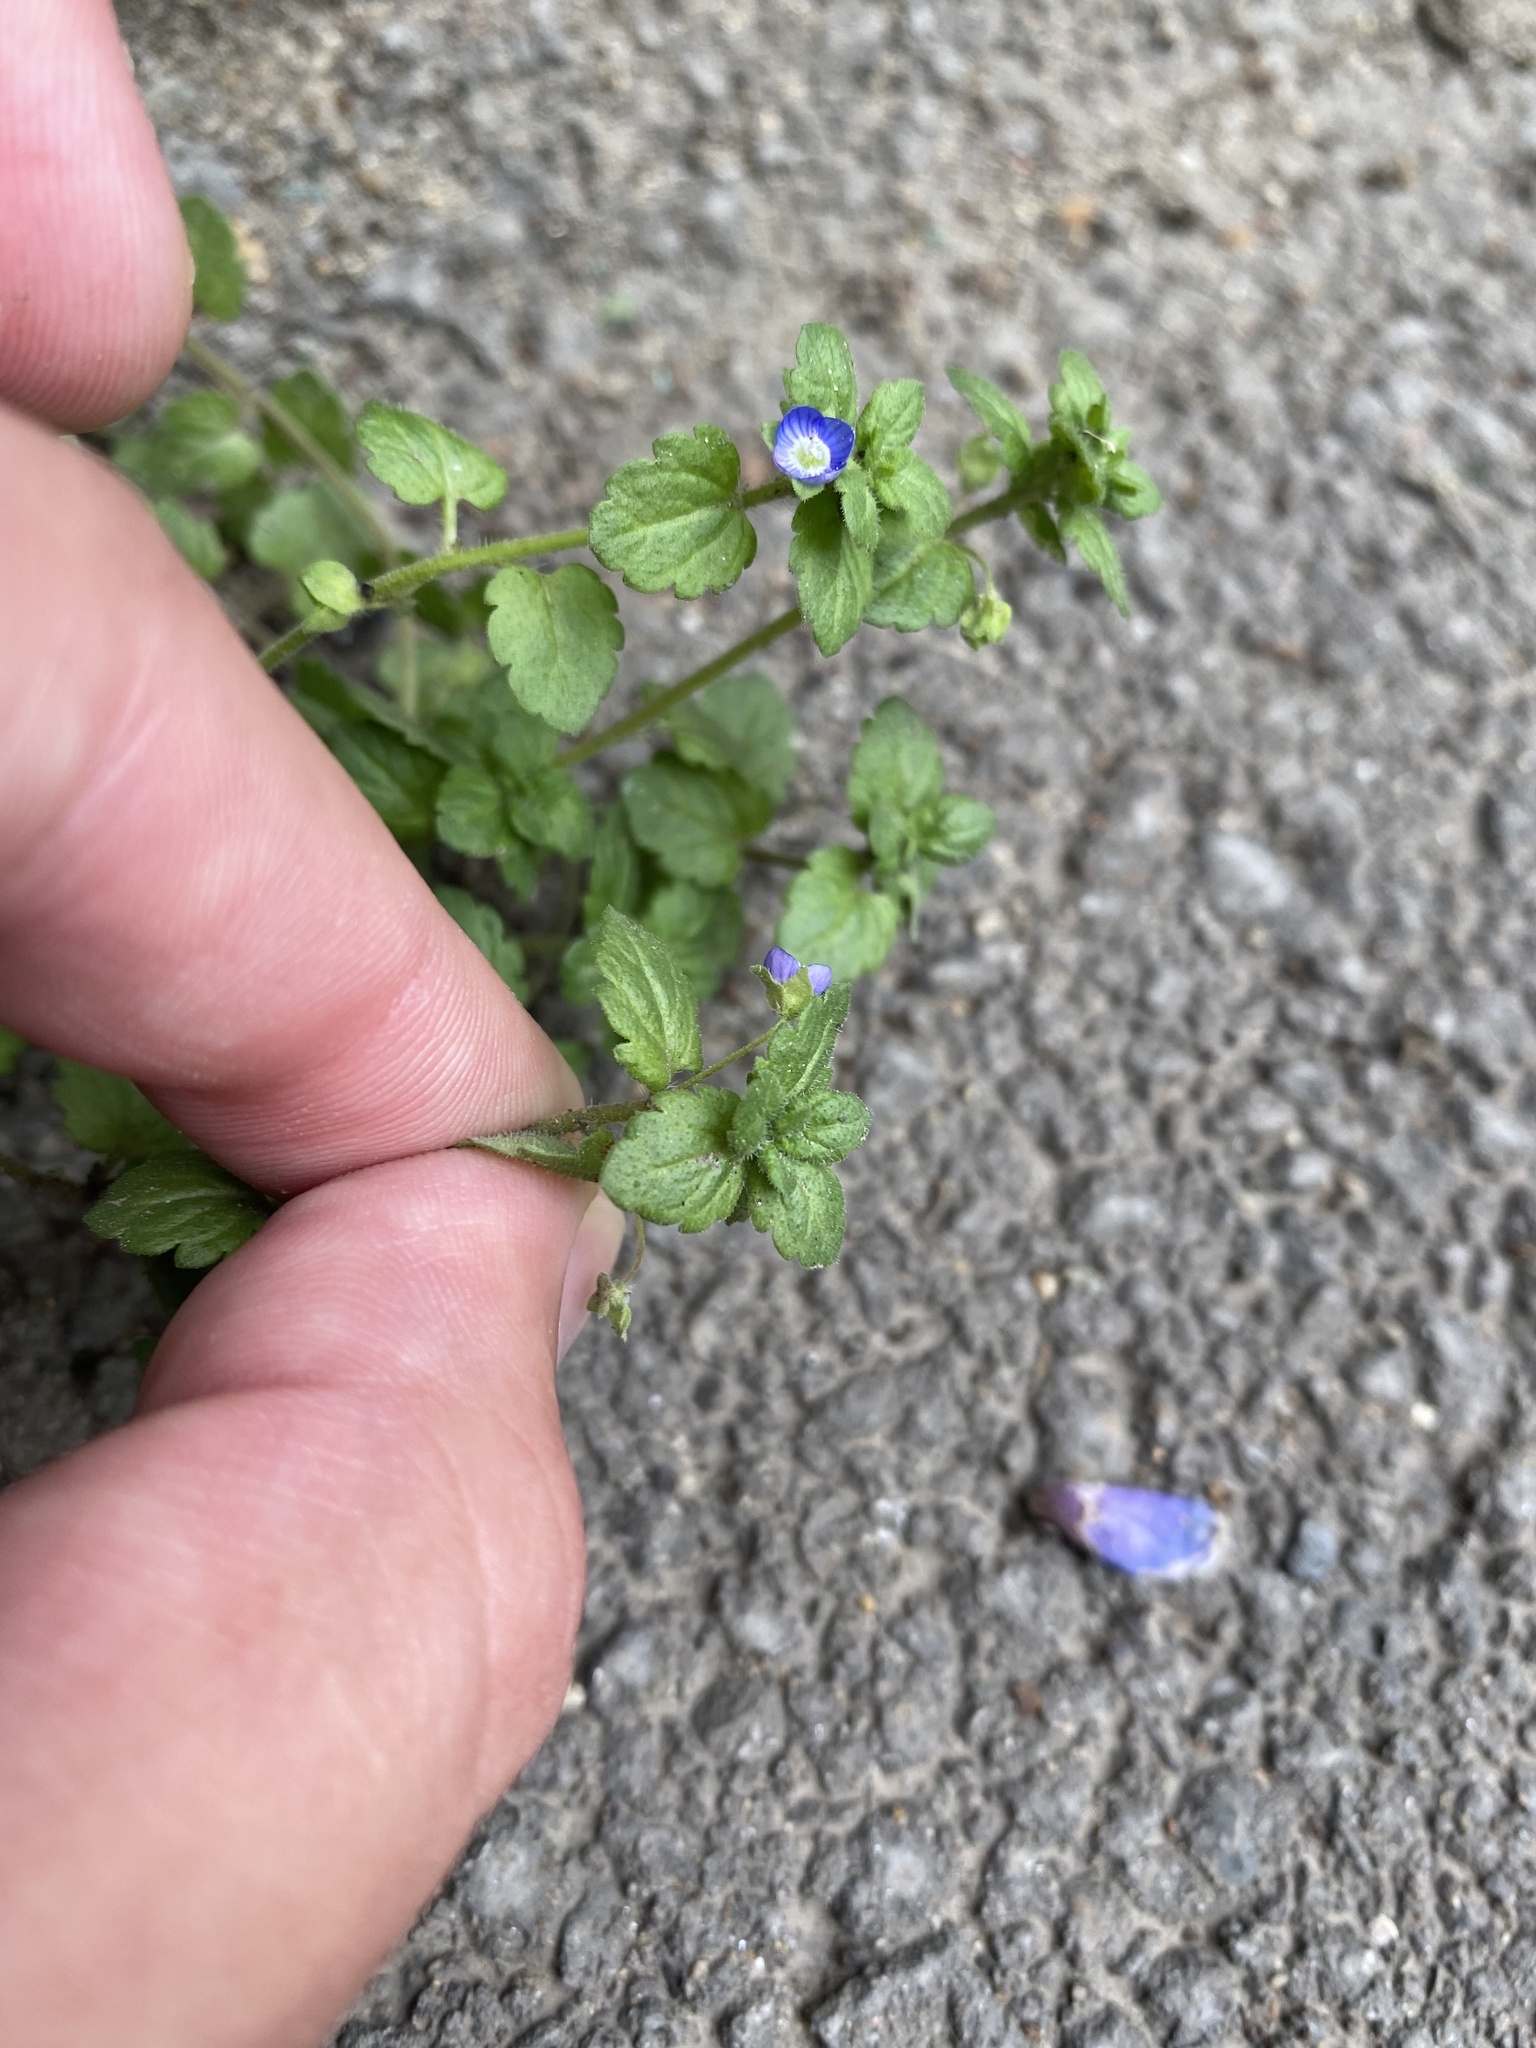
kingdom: Plantae
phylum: Tracheophyta
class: Magnoliopsida
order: Lamiales
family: Plantaginaceae
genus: Veronica
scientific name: Veronica polita
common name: Grey field-speedwell
